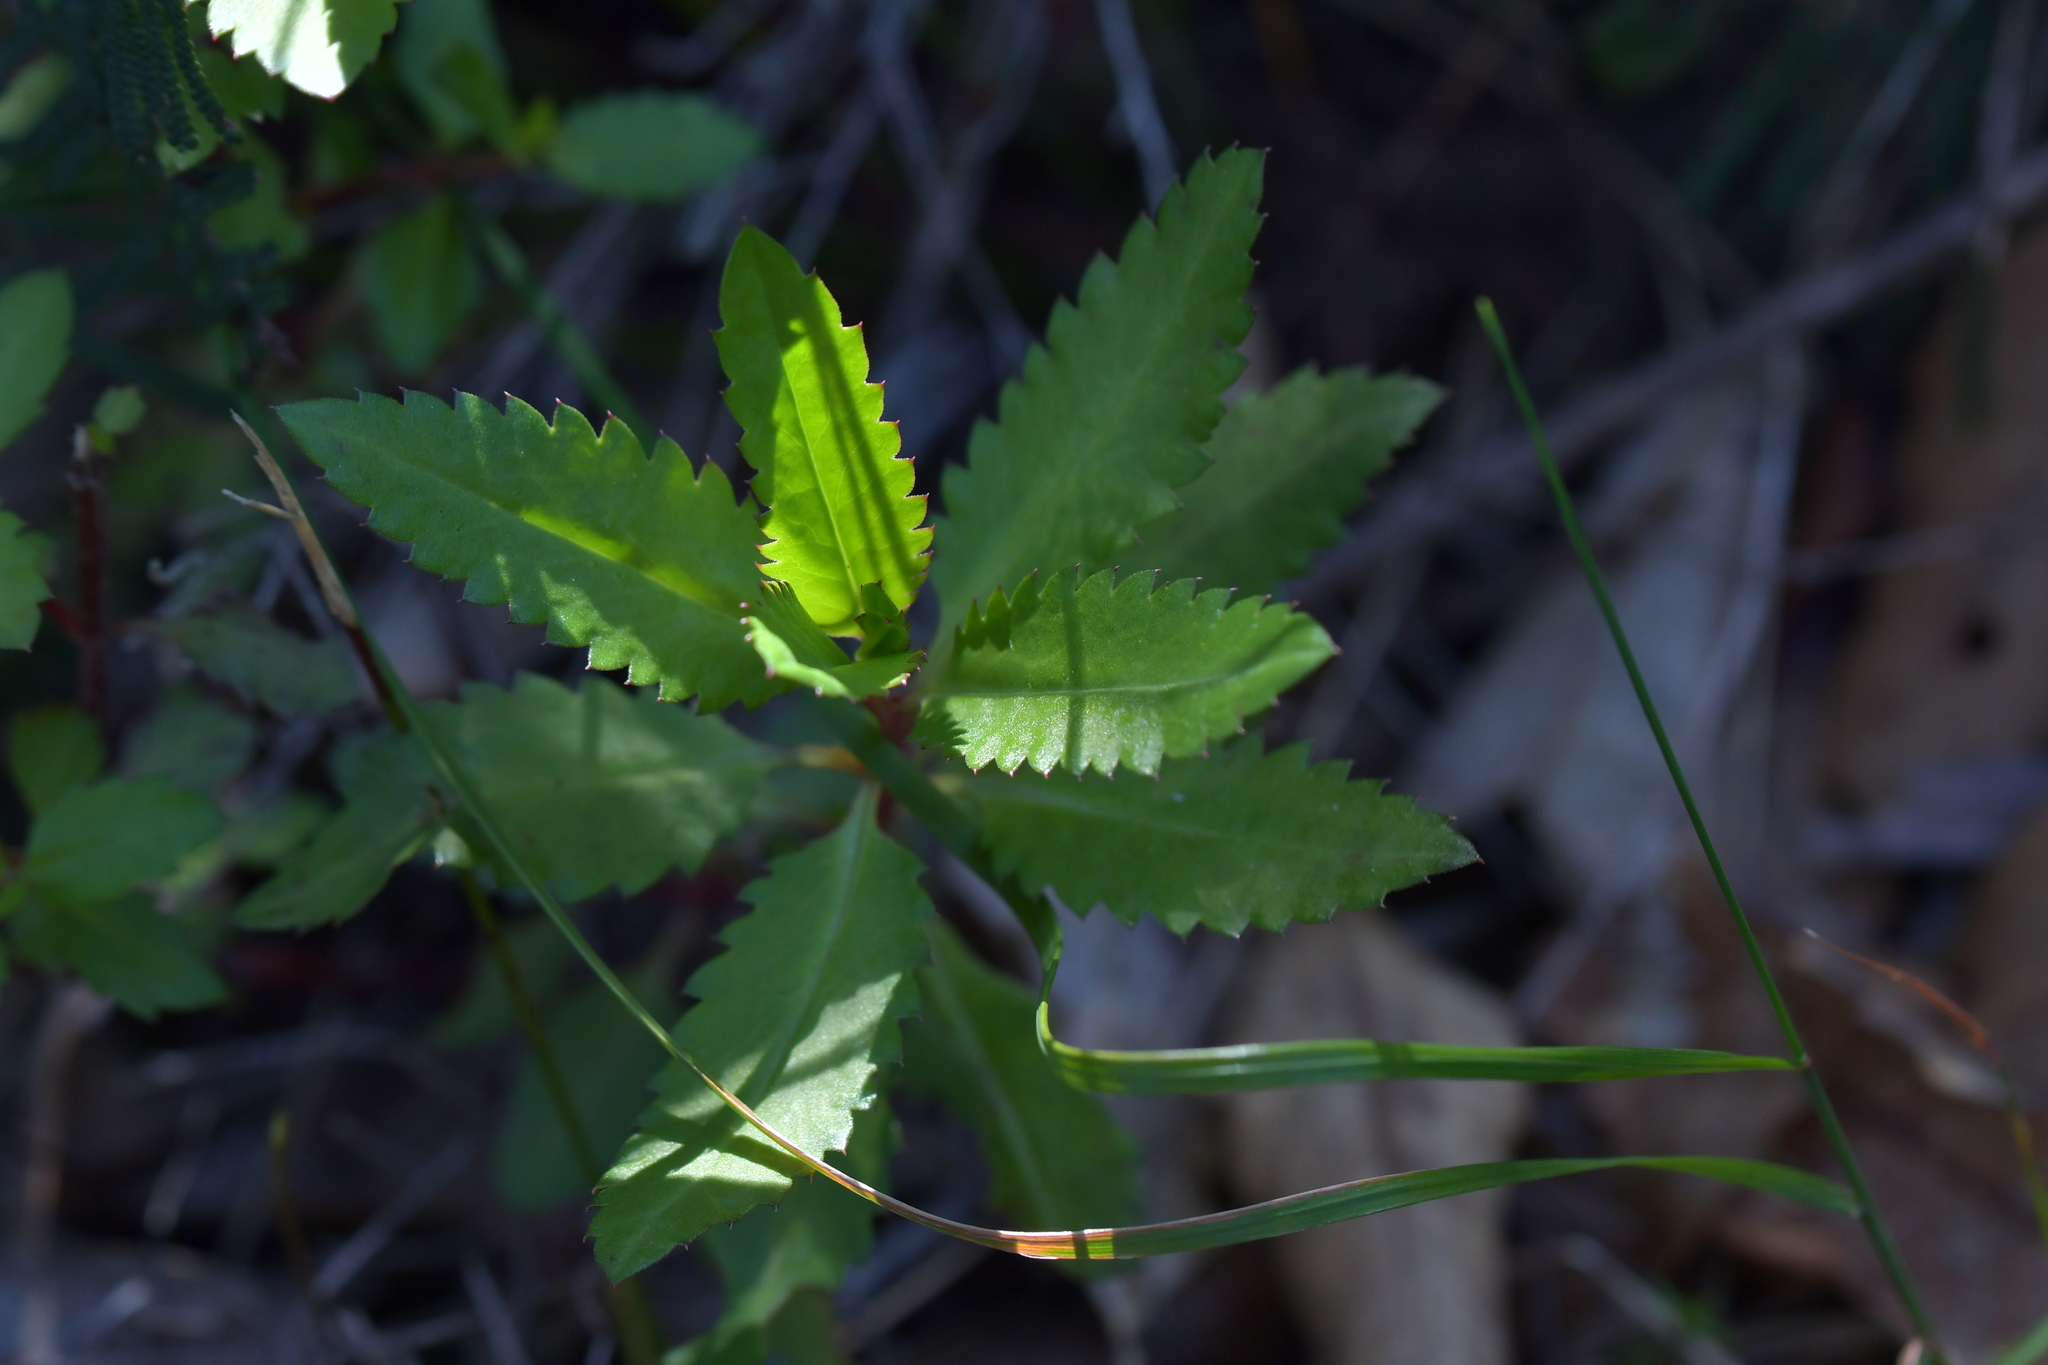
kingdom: Plantae
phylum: Tracheophyta
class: Magnoliopsida
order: Saxifragales
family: Haloragaceae
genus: Haloragis
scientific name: Haloragis erecta
